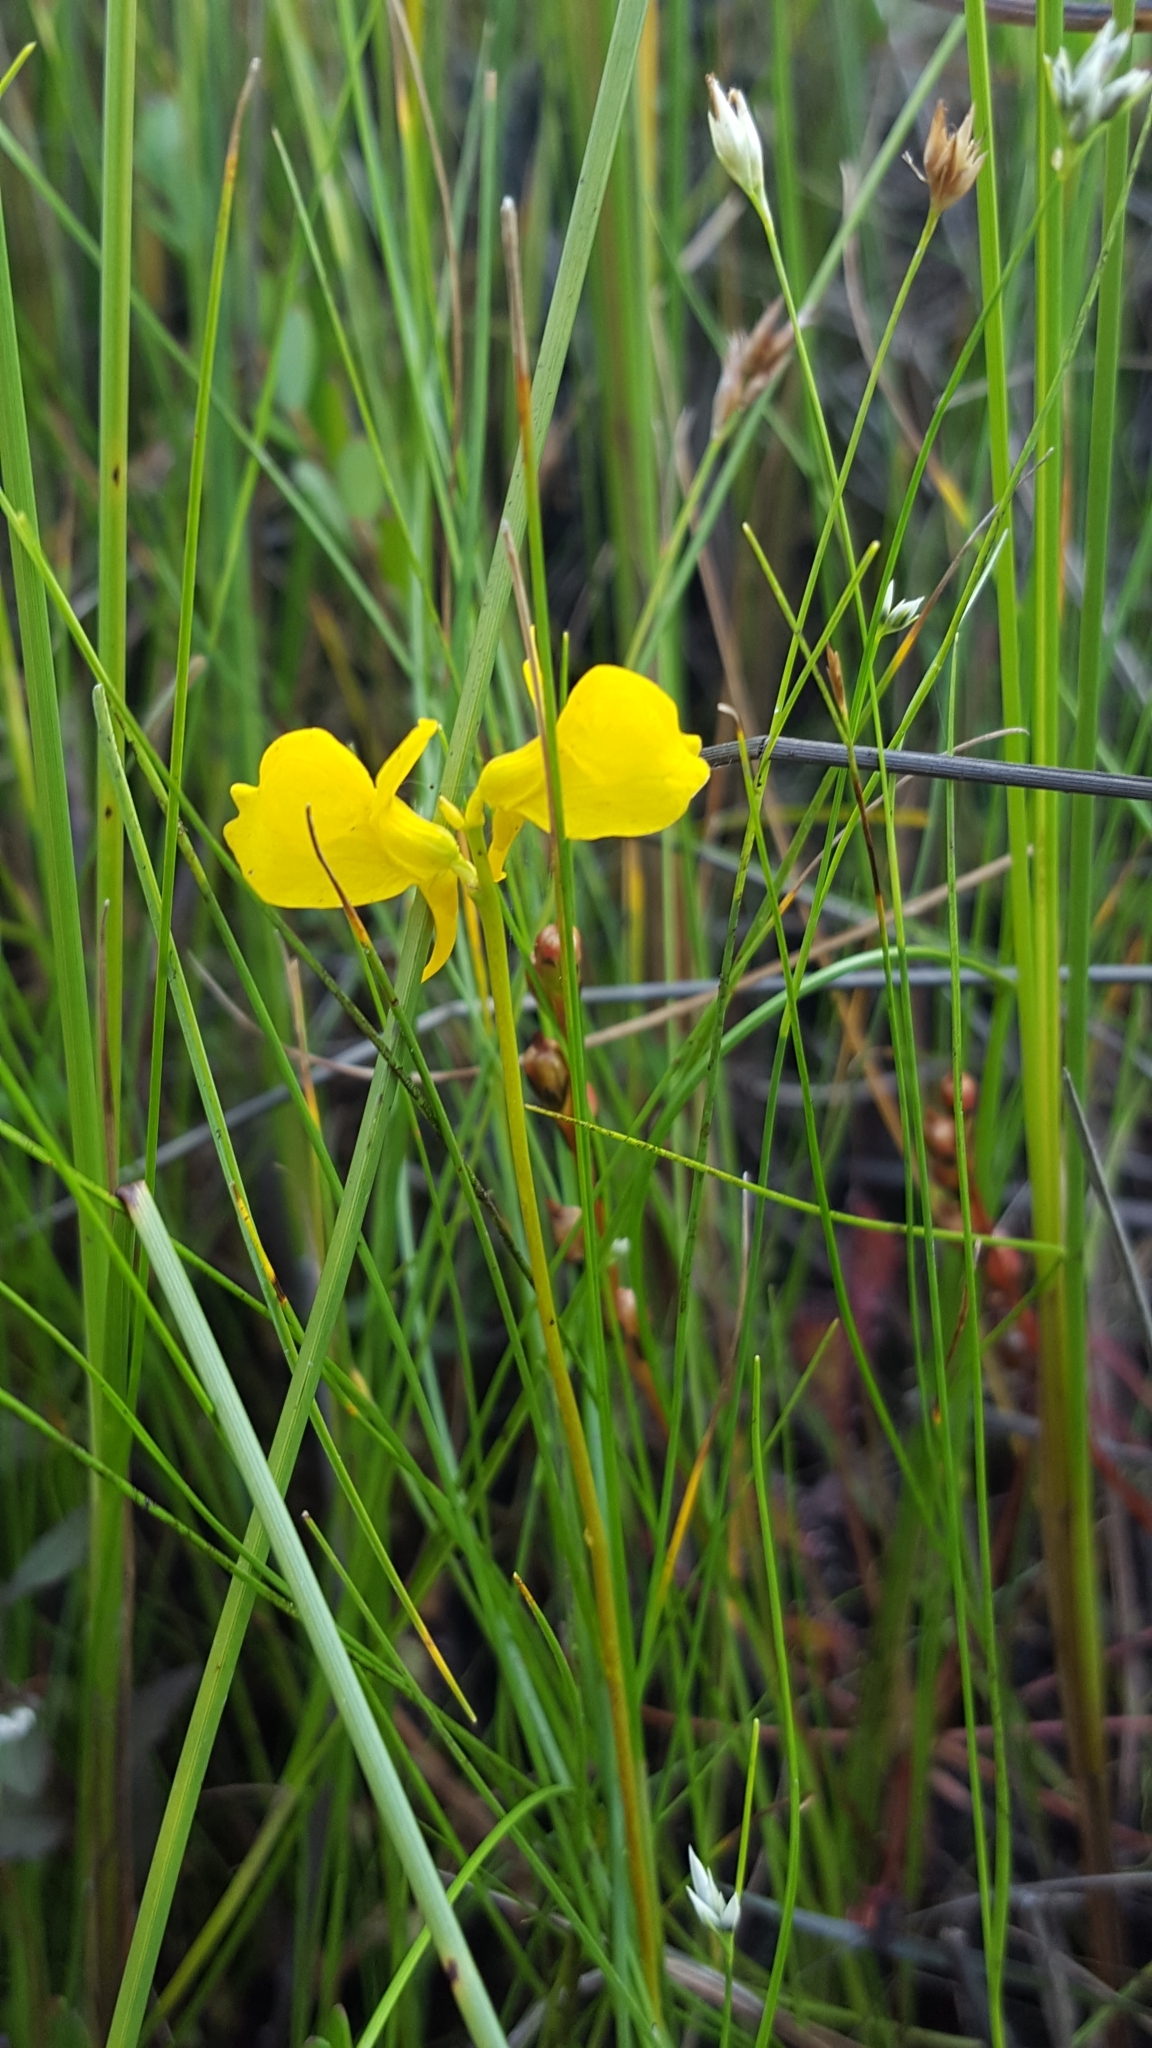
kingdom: Plantae
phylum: Tracheophyta
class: Magnoliopsida
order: Lamiales
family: Lentibulariaceae
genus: Utricularia
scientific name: Utricularia cornuta
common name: Horned bladderwort
